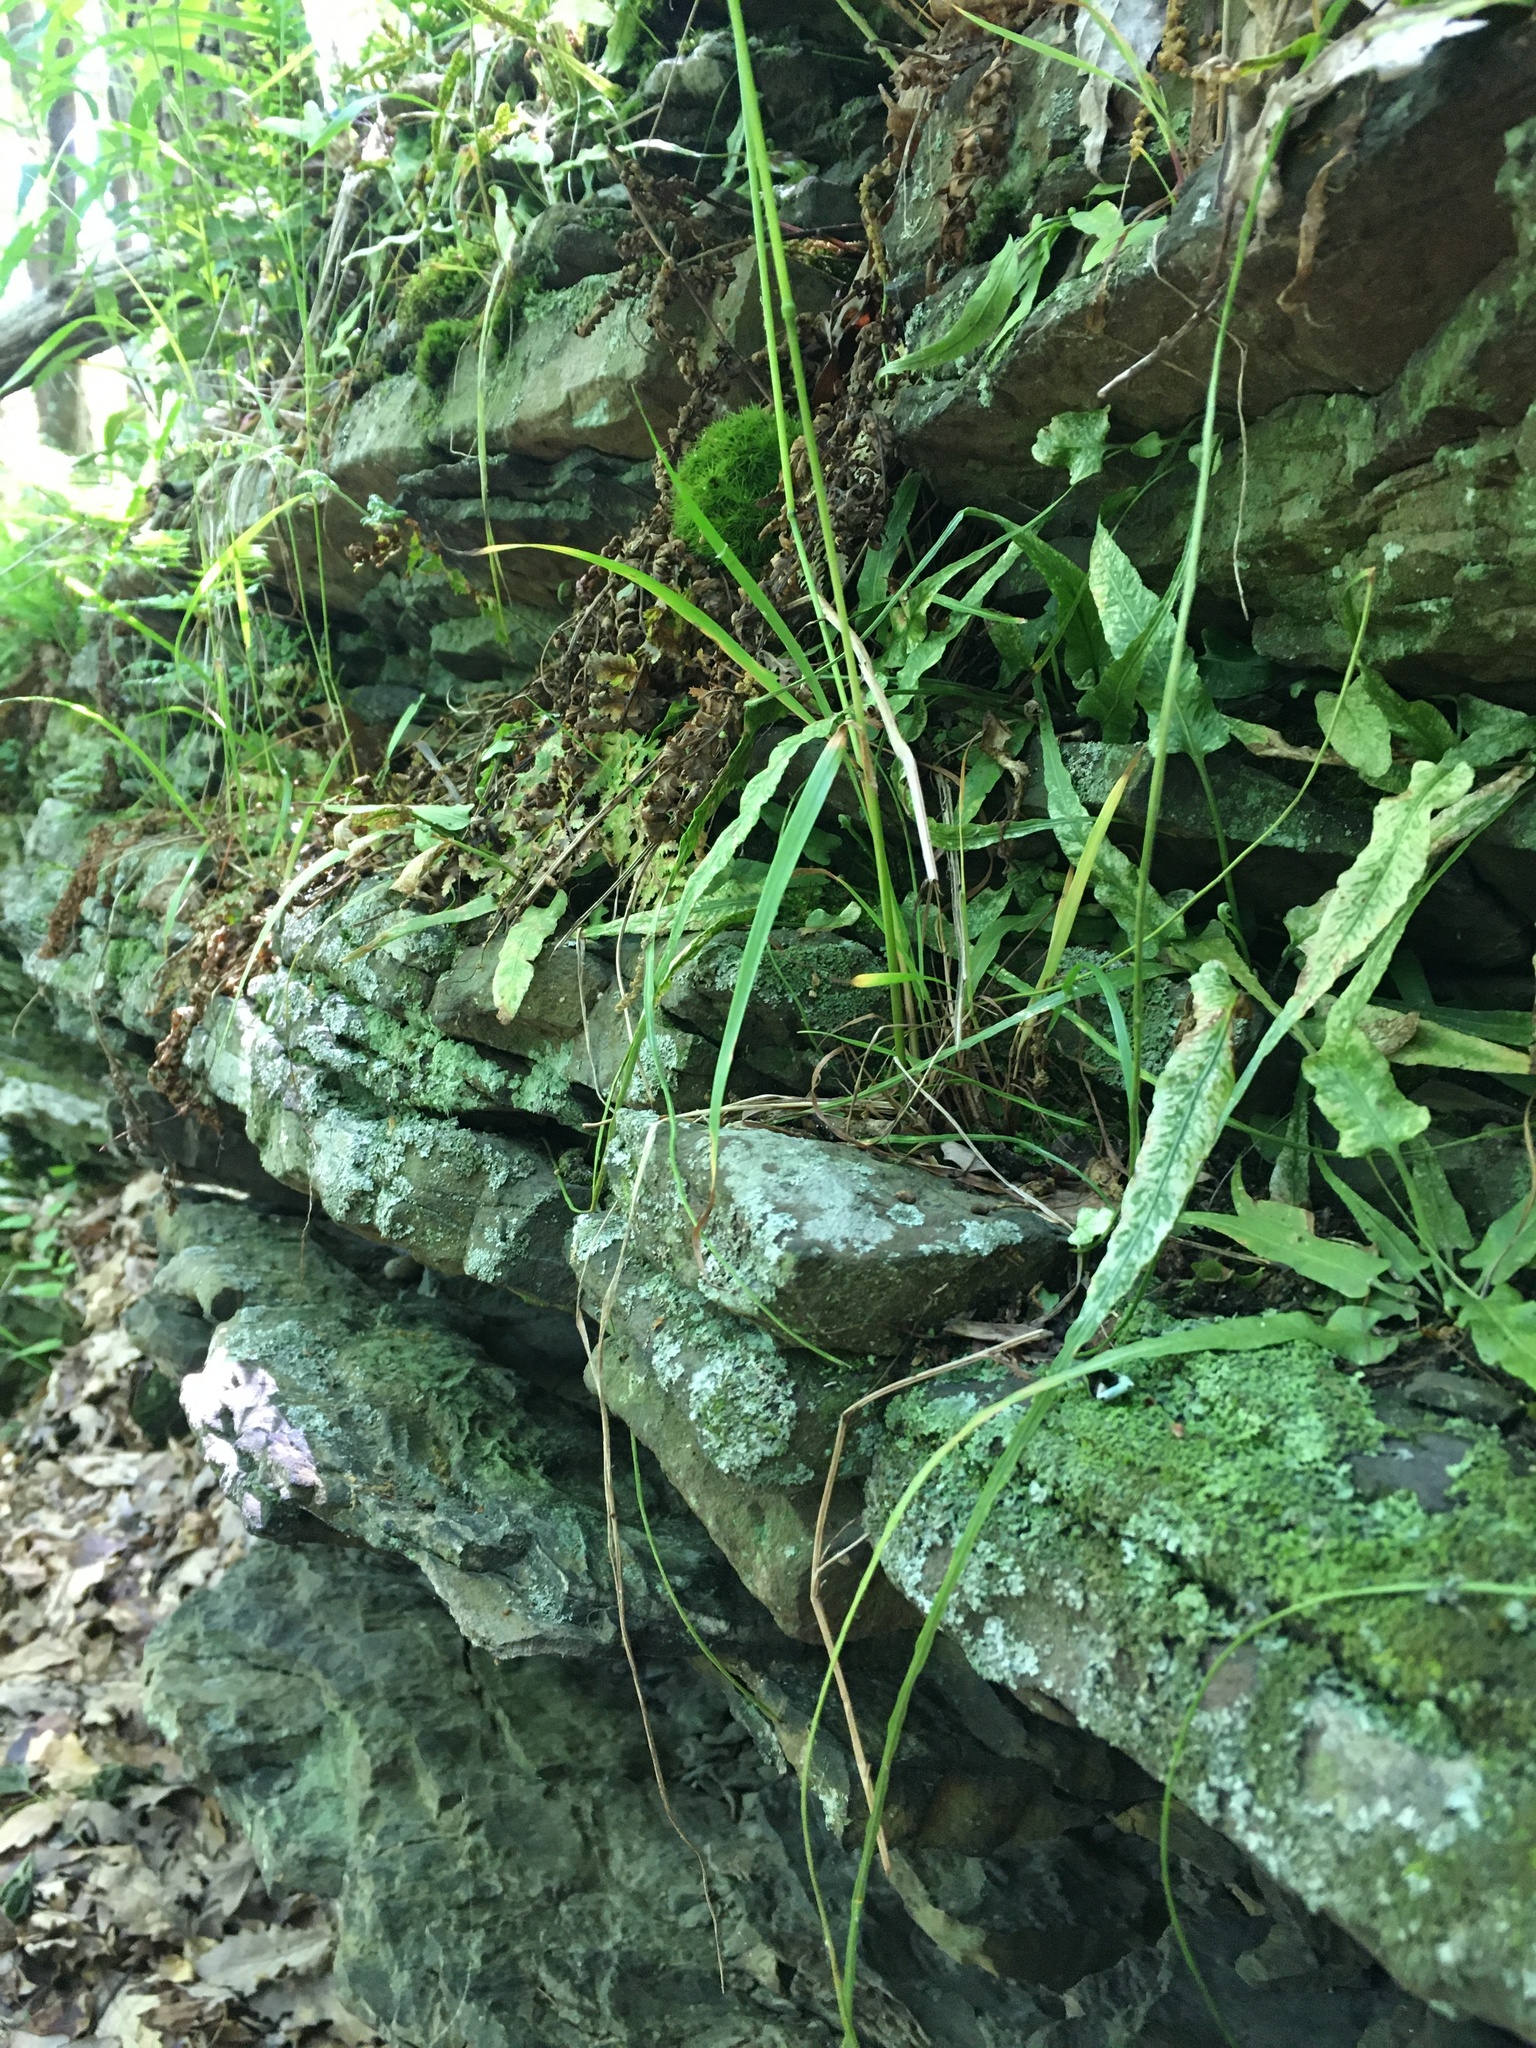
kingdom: Plantae
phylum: Tracheophyta
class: Polypodiopsida
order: Polypodiales
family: Aspleniaceae
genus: Asplenium
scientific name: Asplenium rhizophyllum
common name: Walking fern
